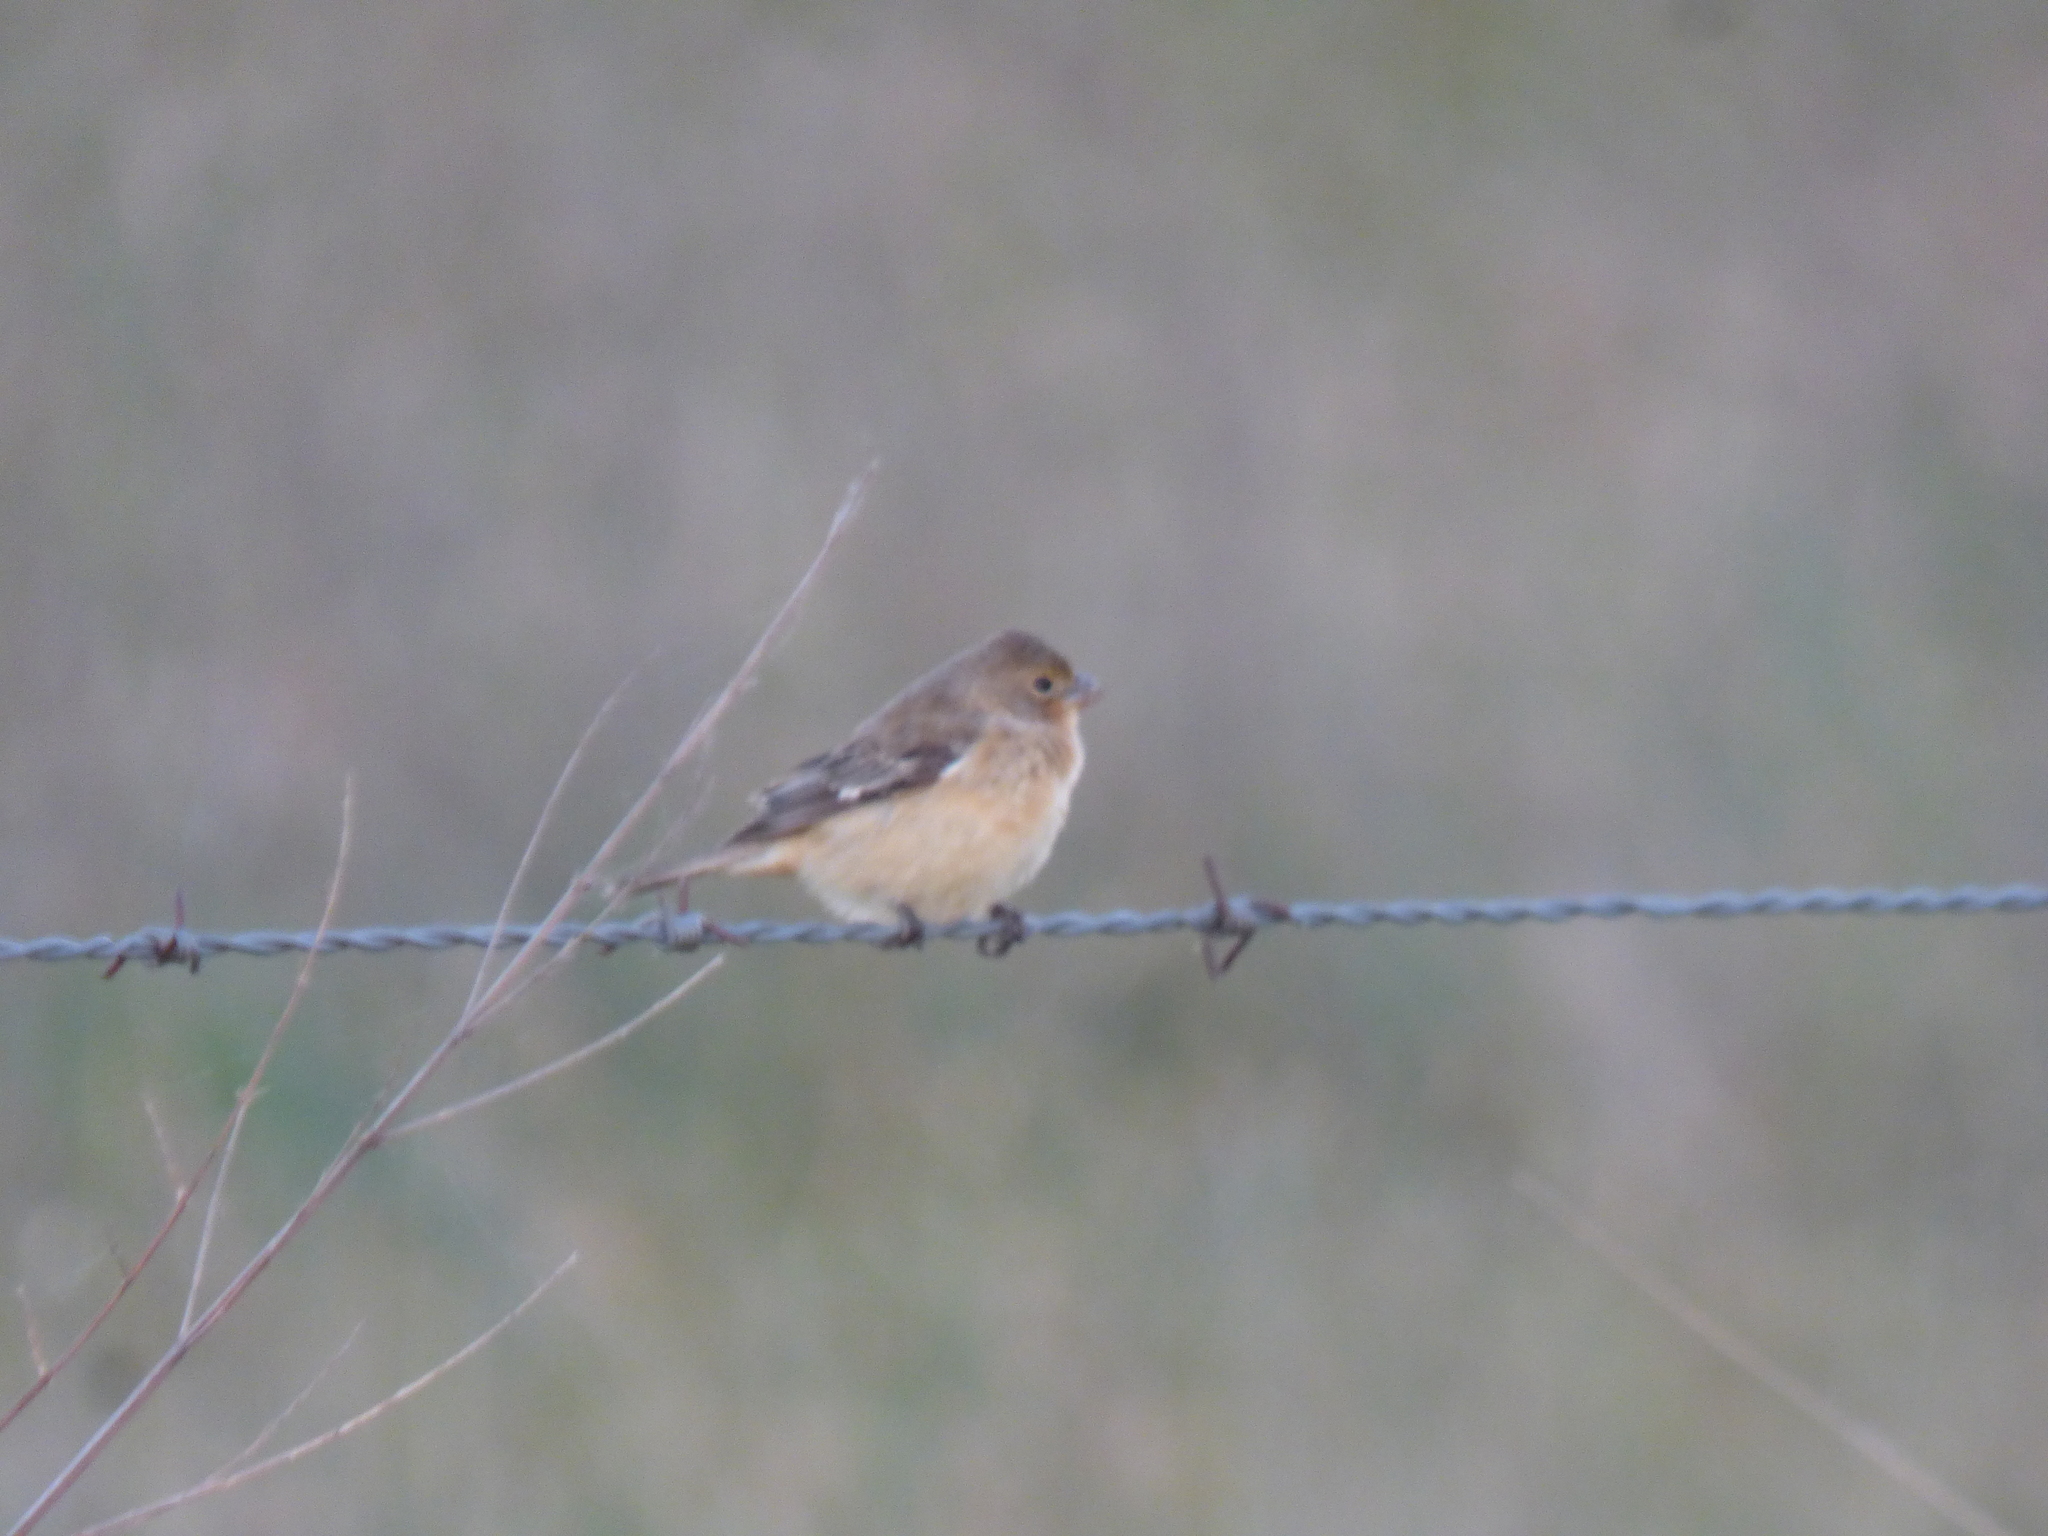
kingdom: Animalia
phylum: Chordata
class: Aves
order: Passeriformes
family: Thraupidae
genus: Sporophila
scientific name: Sporophila ruficollis
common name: Dark-throated seedeater
